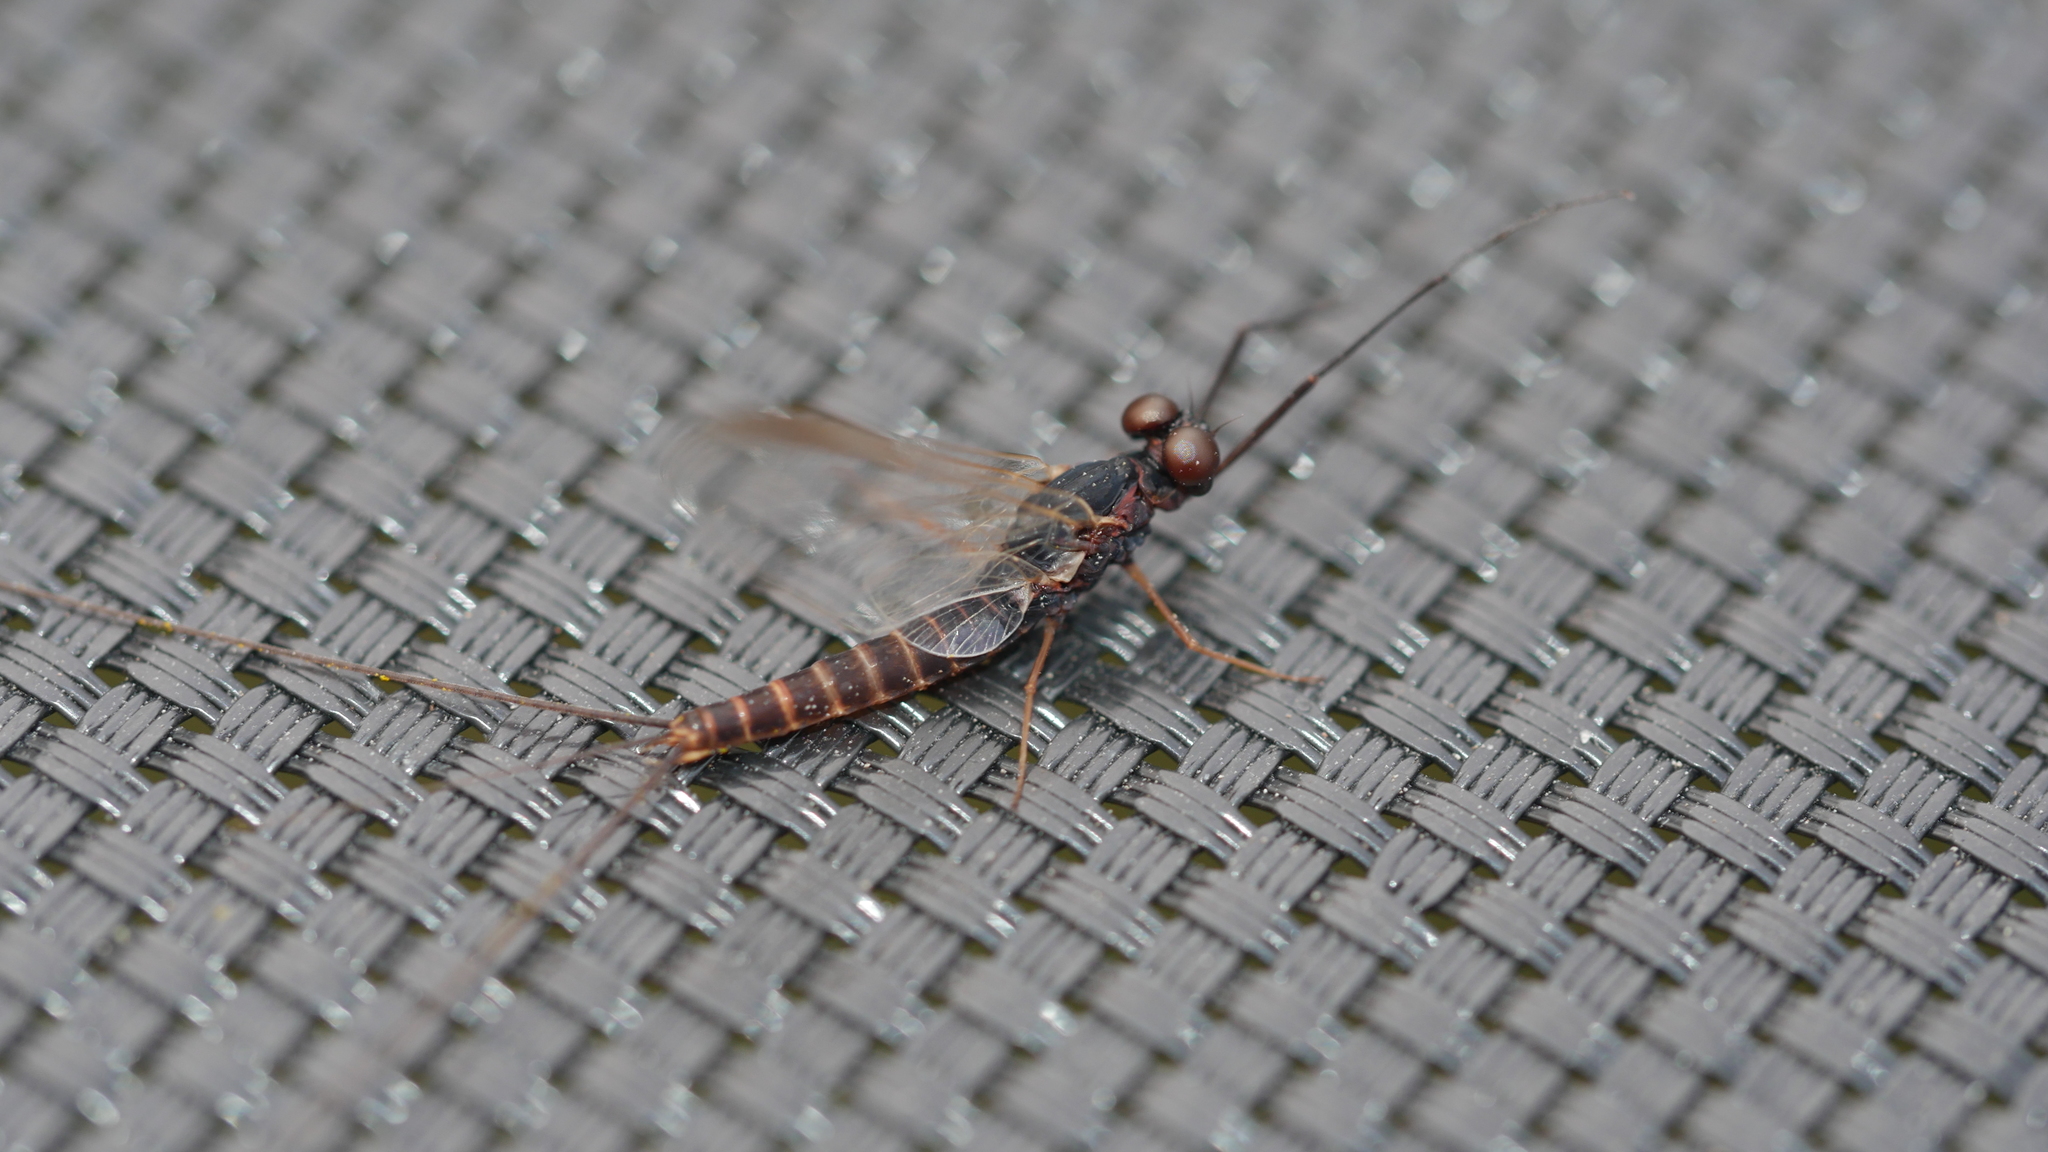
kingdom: Animalia
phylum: Arthropoda
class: Insecta
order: Ephemeroptera
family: Leptophlebiidae
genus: Leptophlebia
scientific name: Leptophlebia cupida
